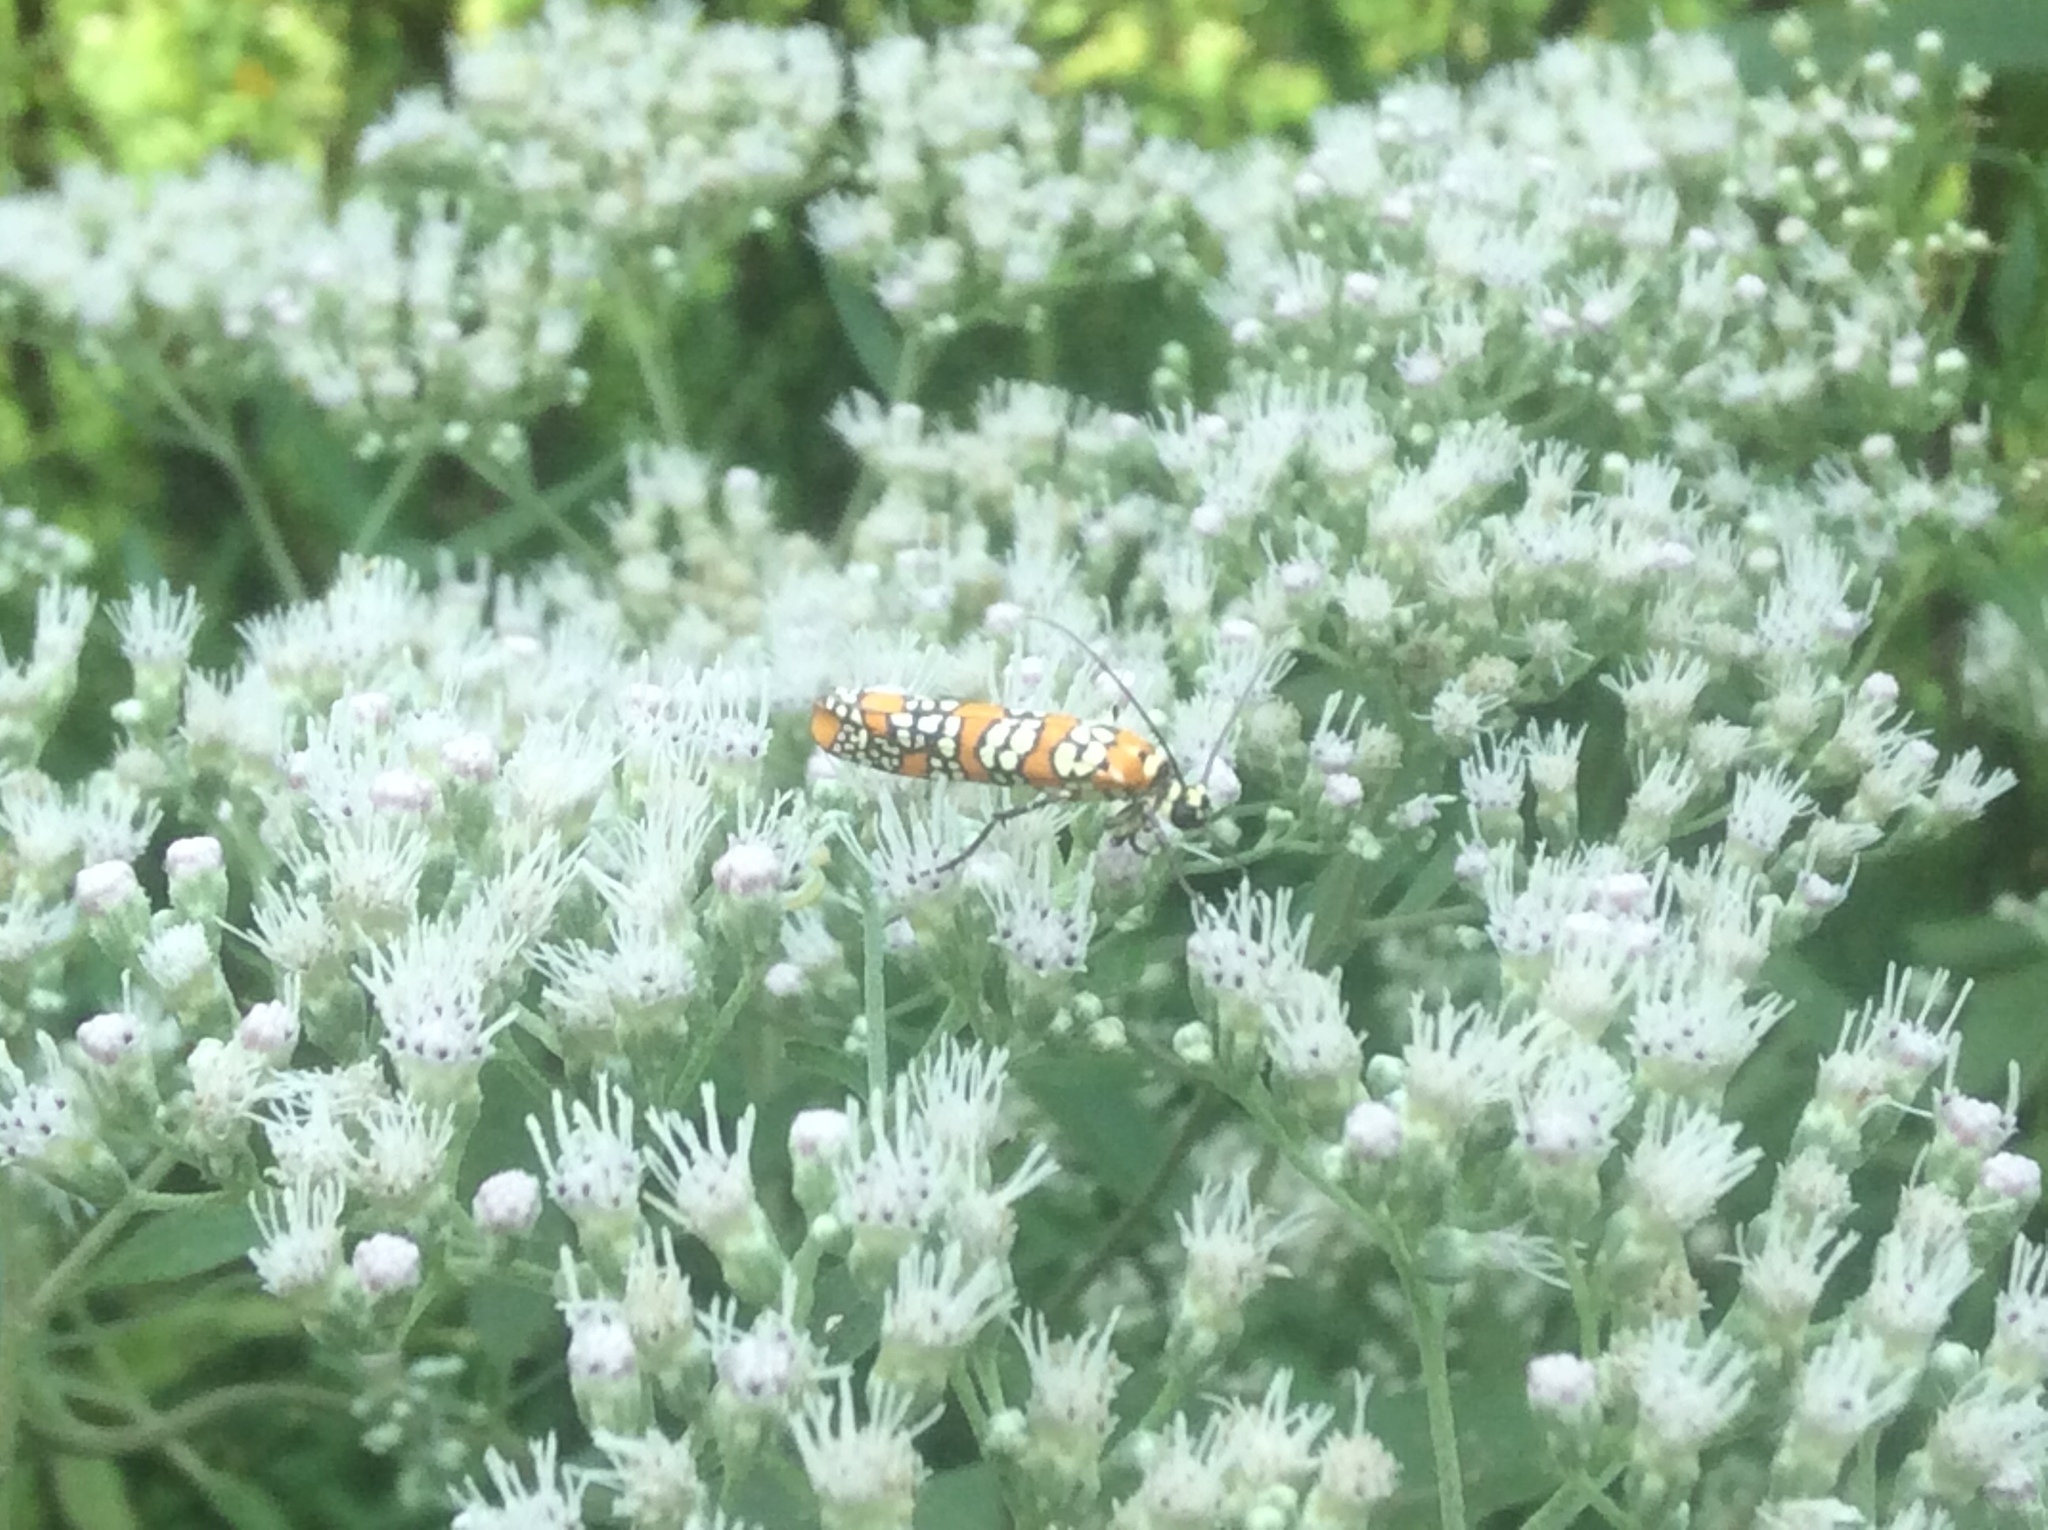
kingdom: Animalia
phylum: Arthropoda
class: Insecta
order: Lepidoptera
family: Attevidae
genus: Atteva
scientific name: Atteva punctella
